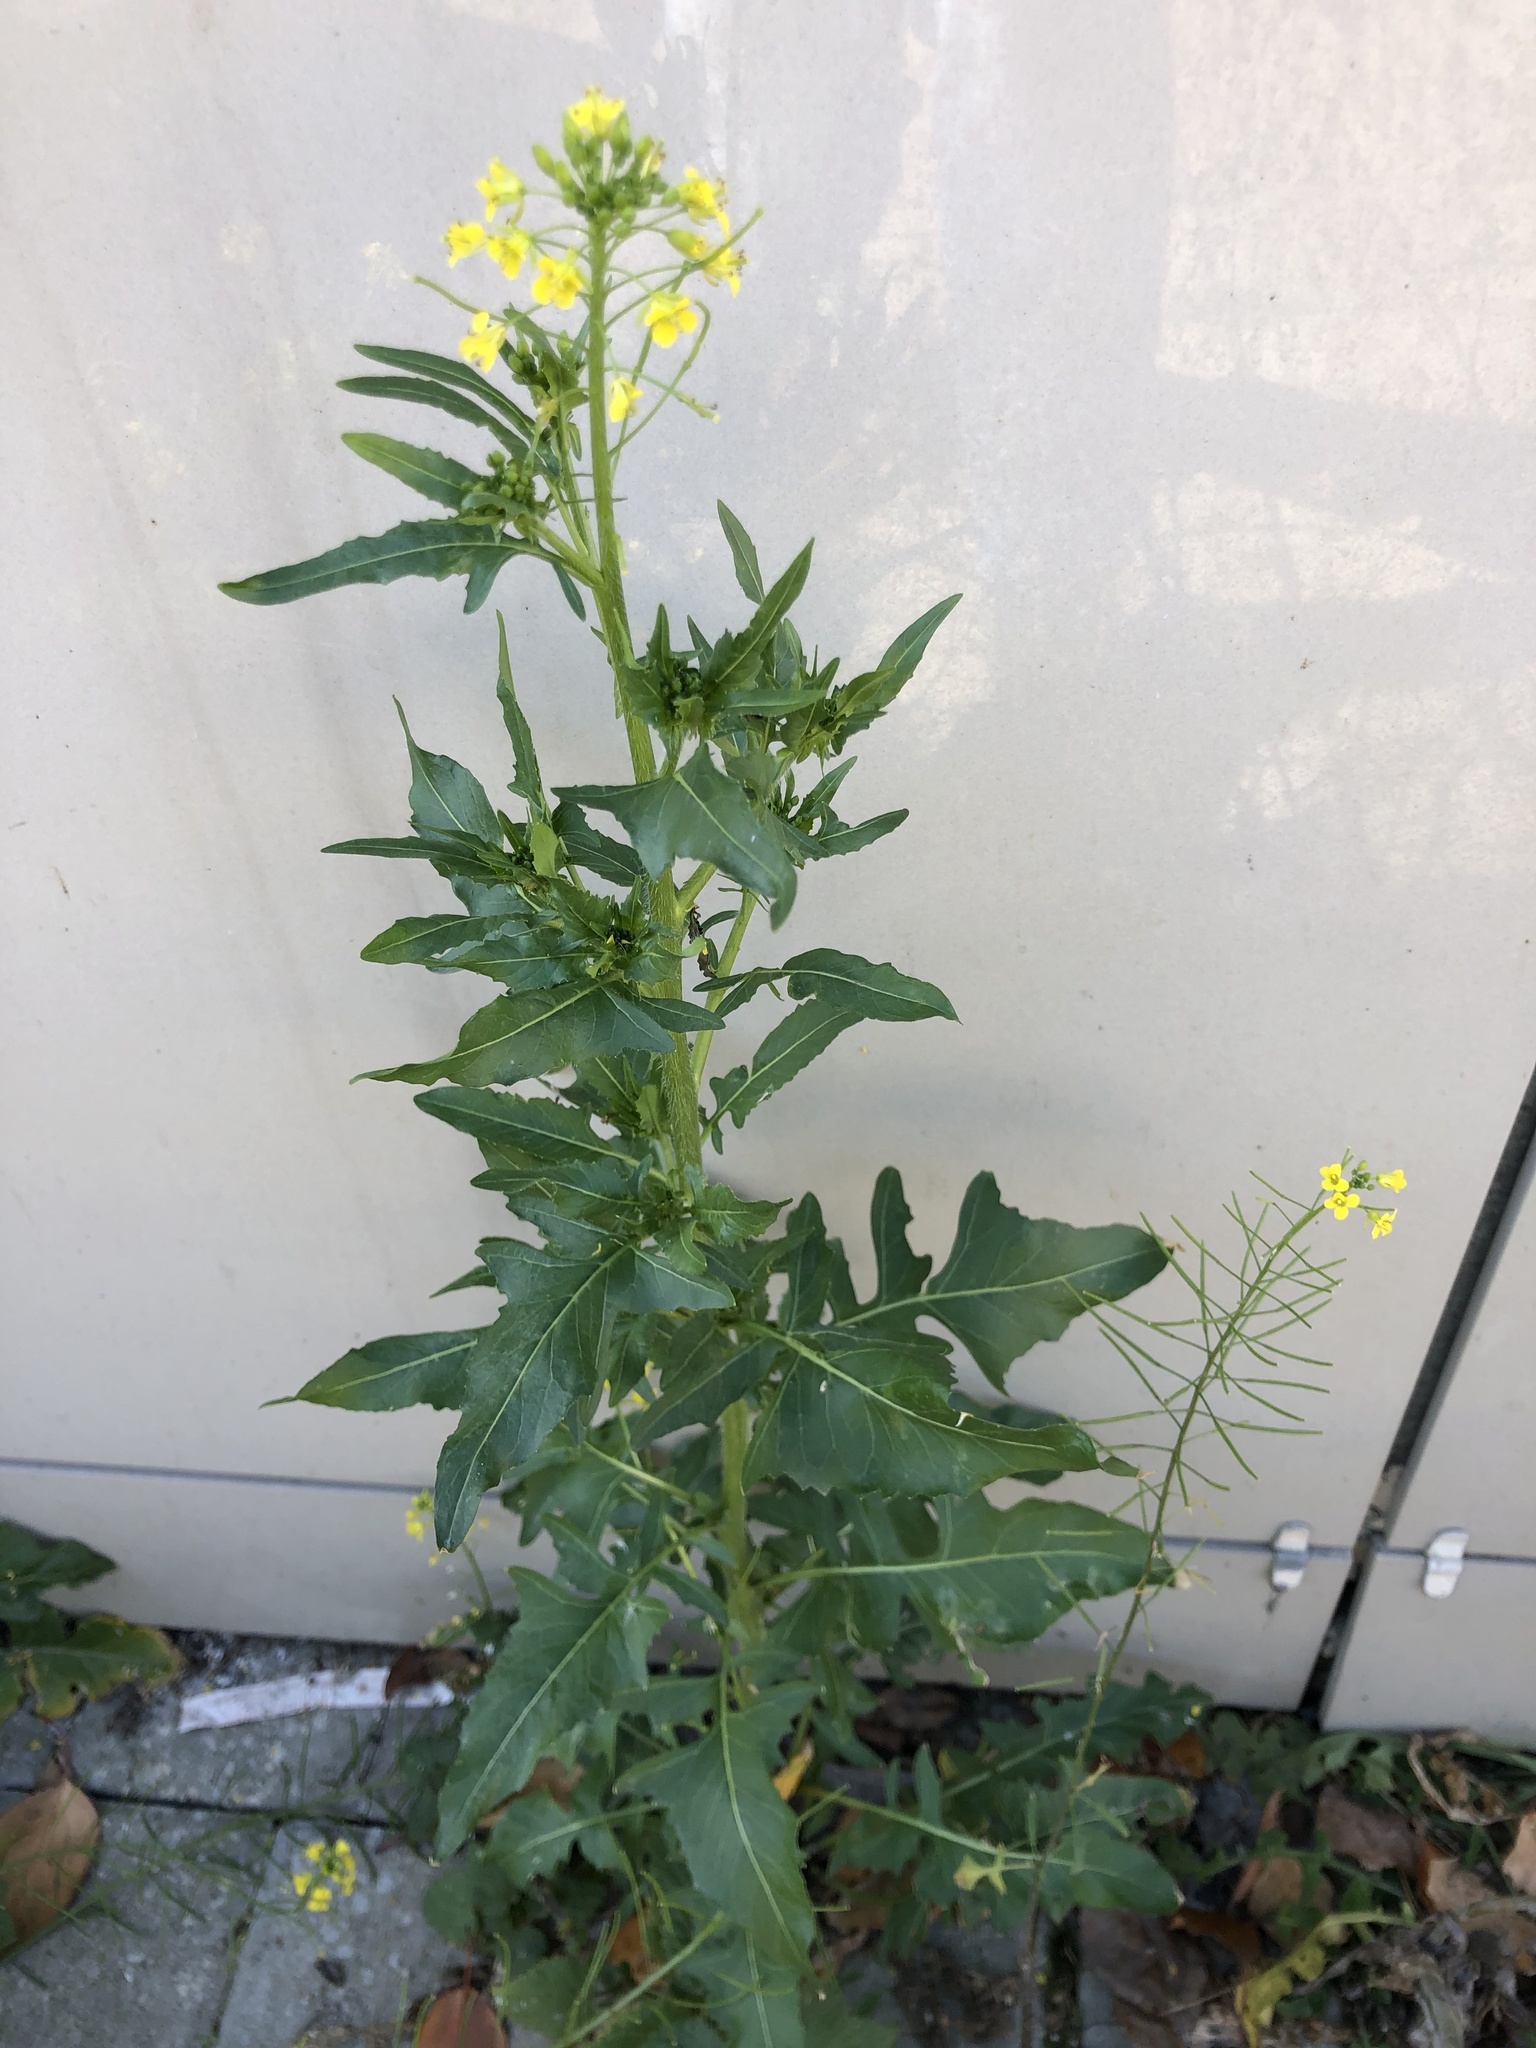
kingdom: Plantae
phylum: Tracheophyta
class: Magnoliopsida
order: Brassicales
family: Brassicaceae
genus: Sisymbrium
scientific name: Sisymbrium loeselii
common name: False london-rocket
